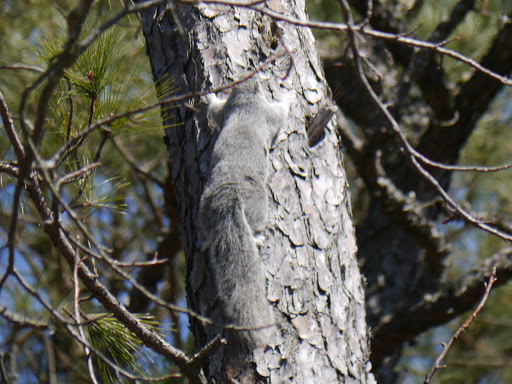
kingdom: Animalia
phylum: Chordata
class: Mammalia
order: Rodentia
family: Sciuridae
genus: Sciurus
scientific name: Sciurus niger
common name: Fox squirrel
